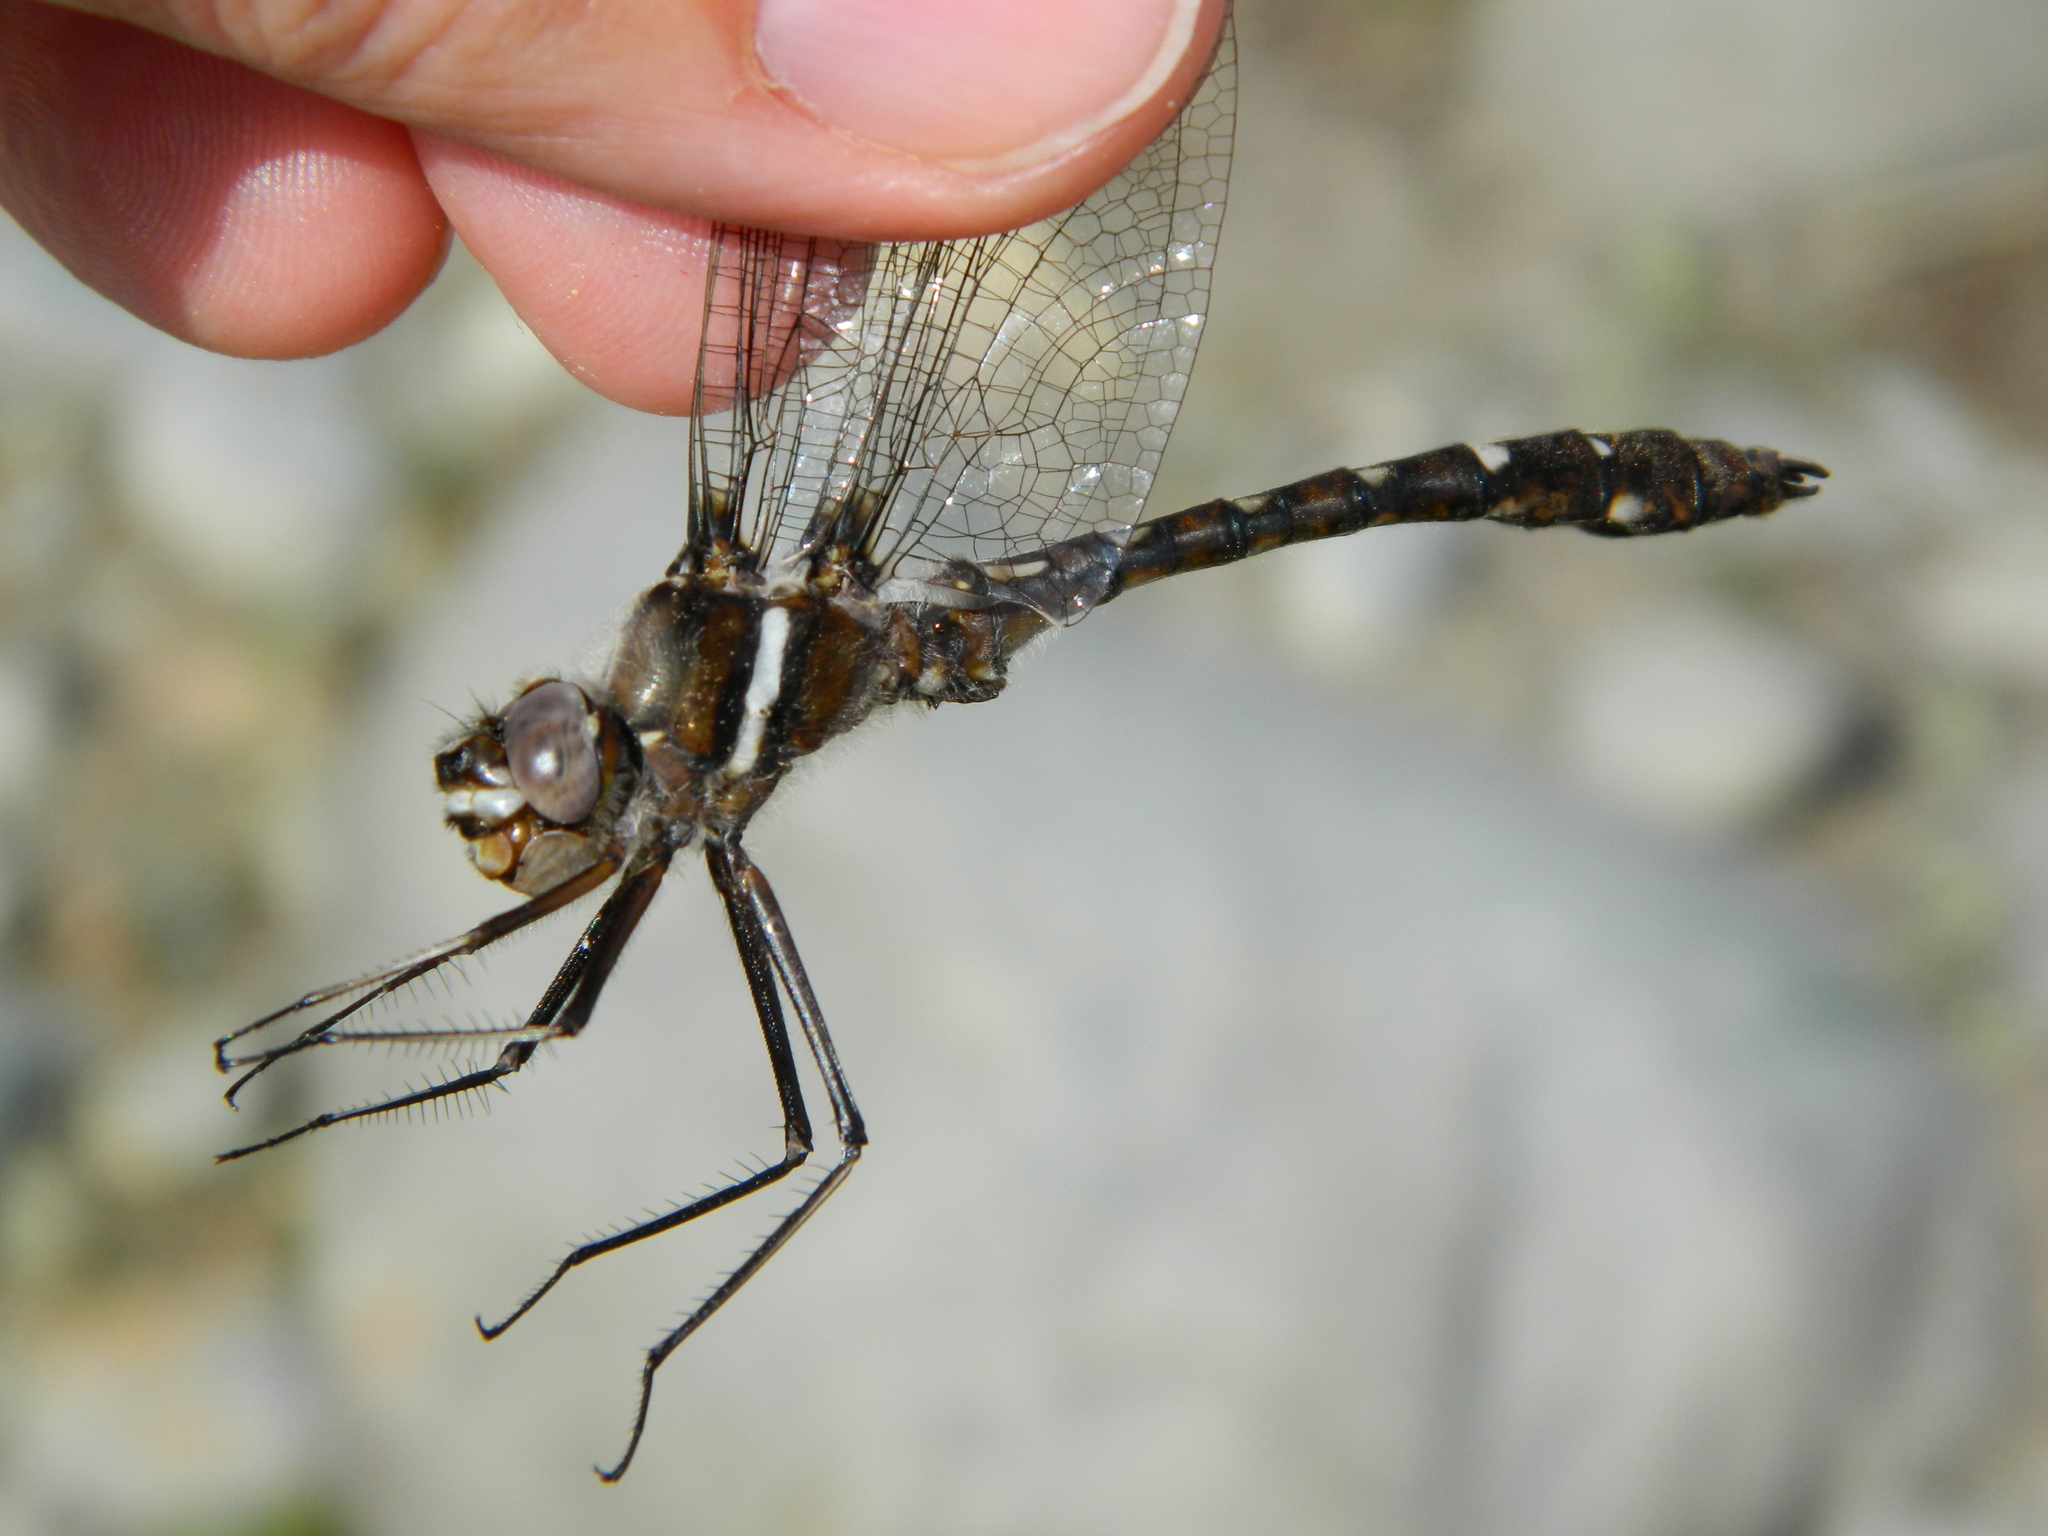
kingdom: Animalia
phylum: Arthropoda
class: Insecta
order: Odonata
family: Macromiidae
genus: Didymops
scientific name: Didymops transversa
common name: Stream cruiser
